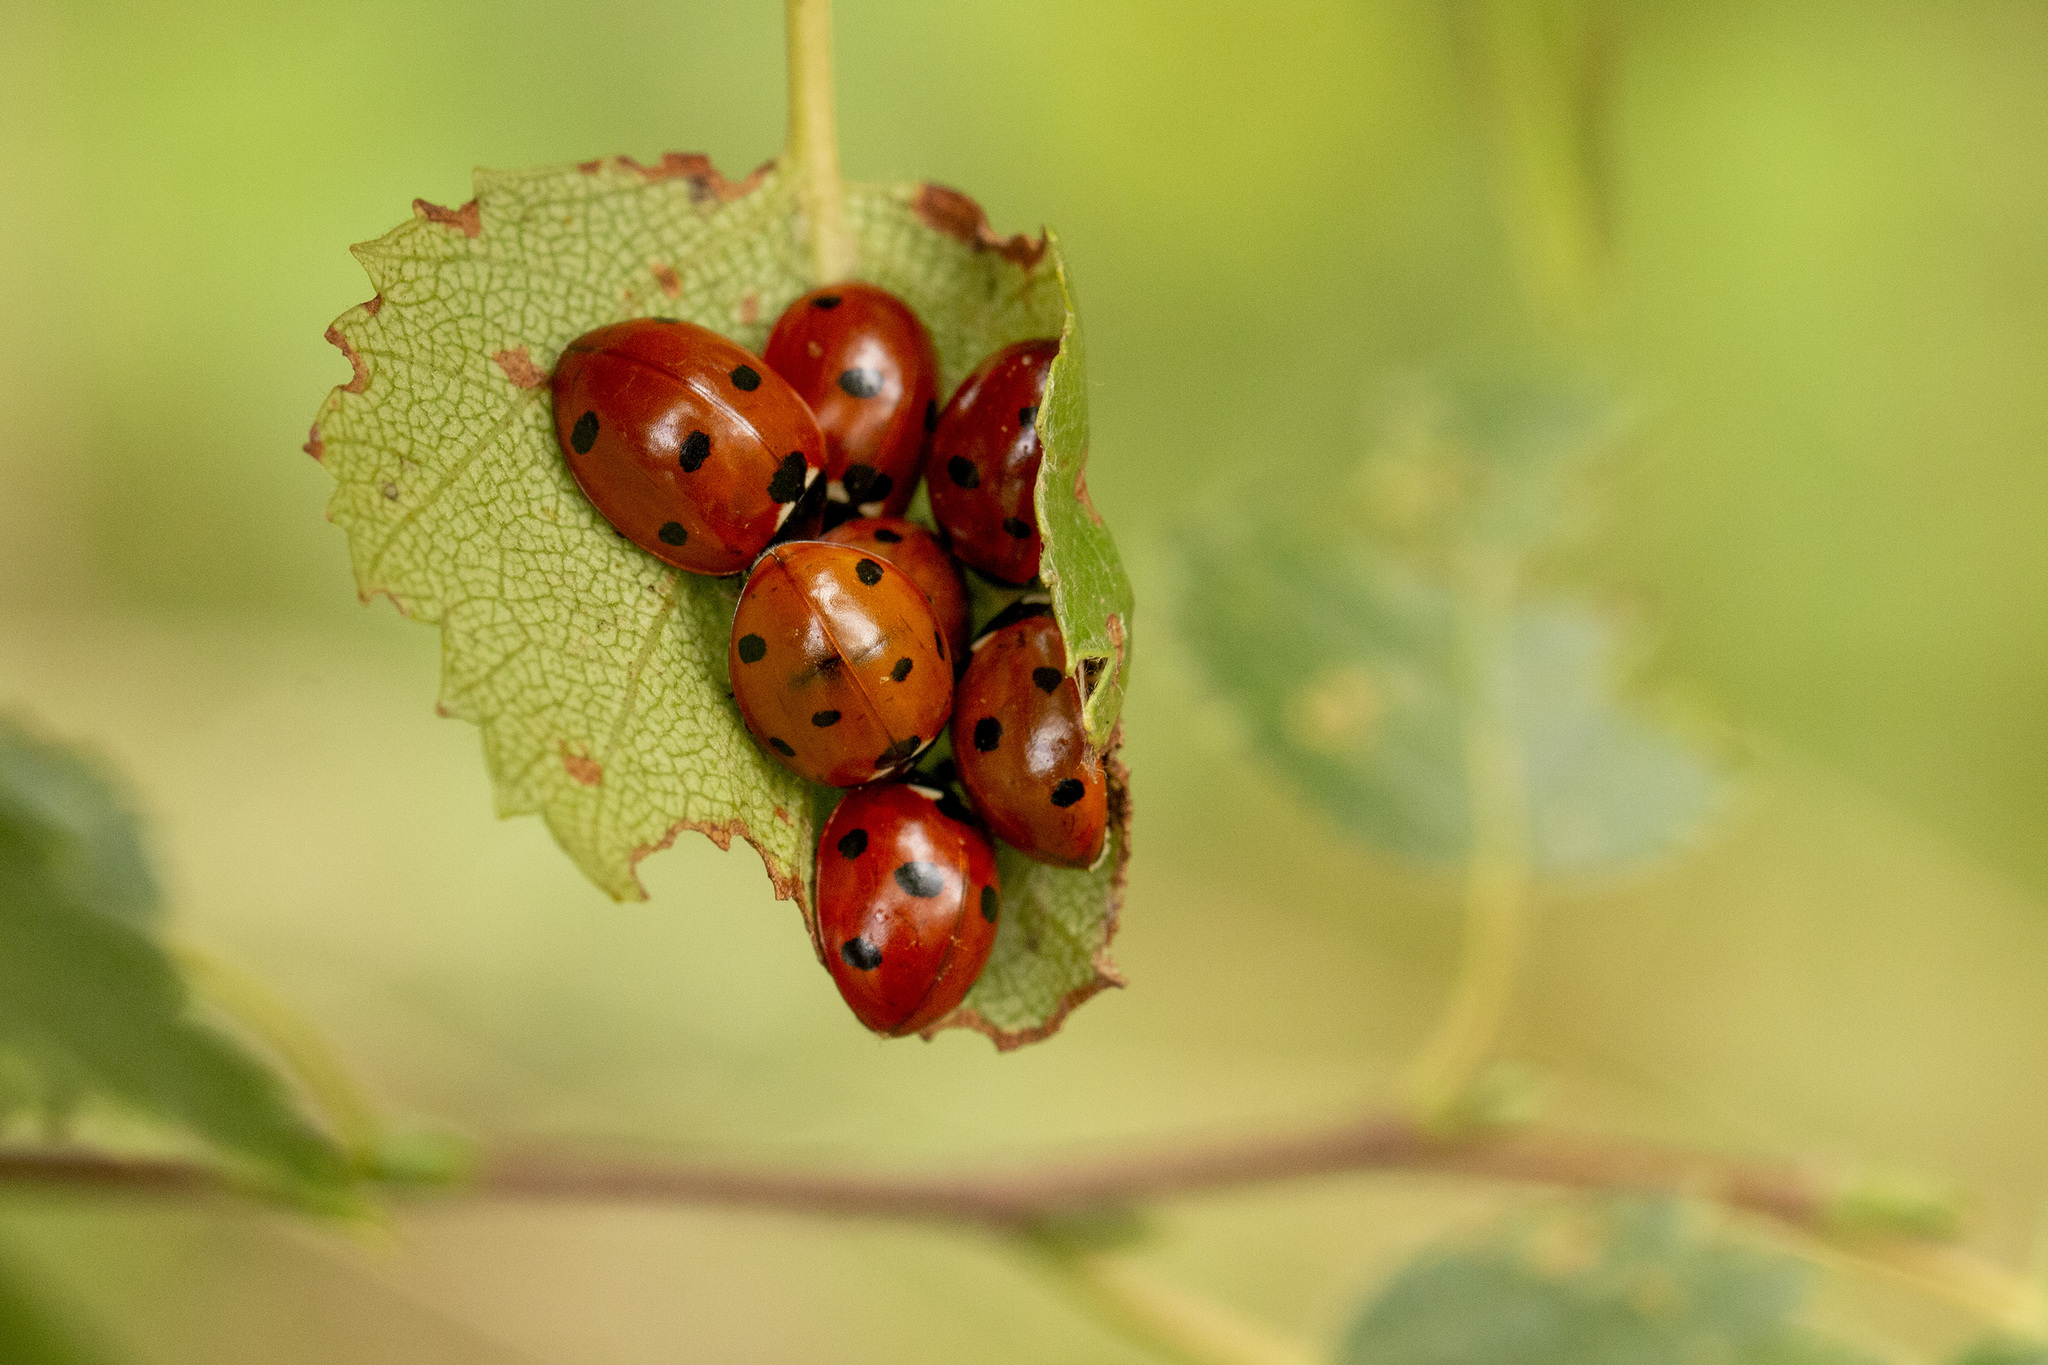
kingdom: Animalia
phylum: Arthropoda
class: Insecta
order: Coleoptera
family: Coccinellidae
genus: Coccinella
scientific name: Coccinella septempunctata
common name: Sevenspotted lady beetle
